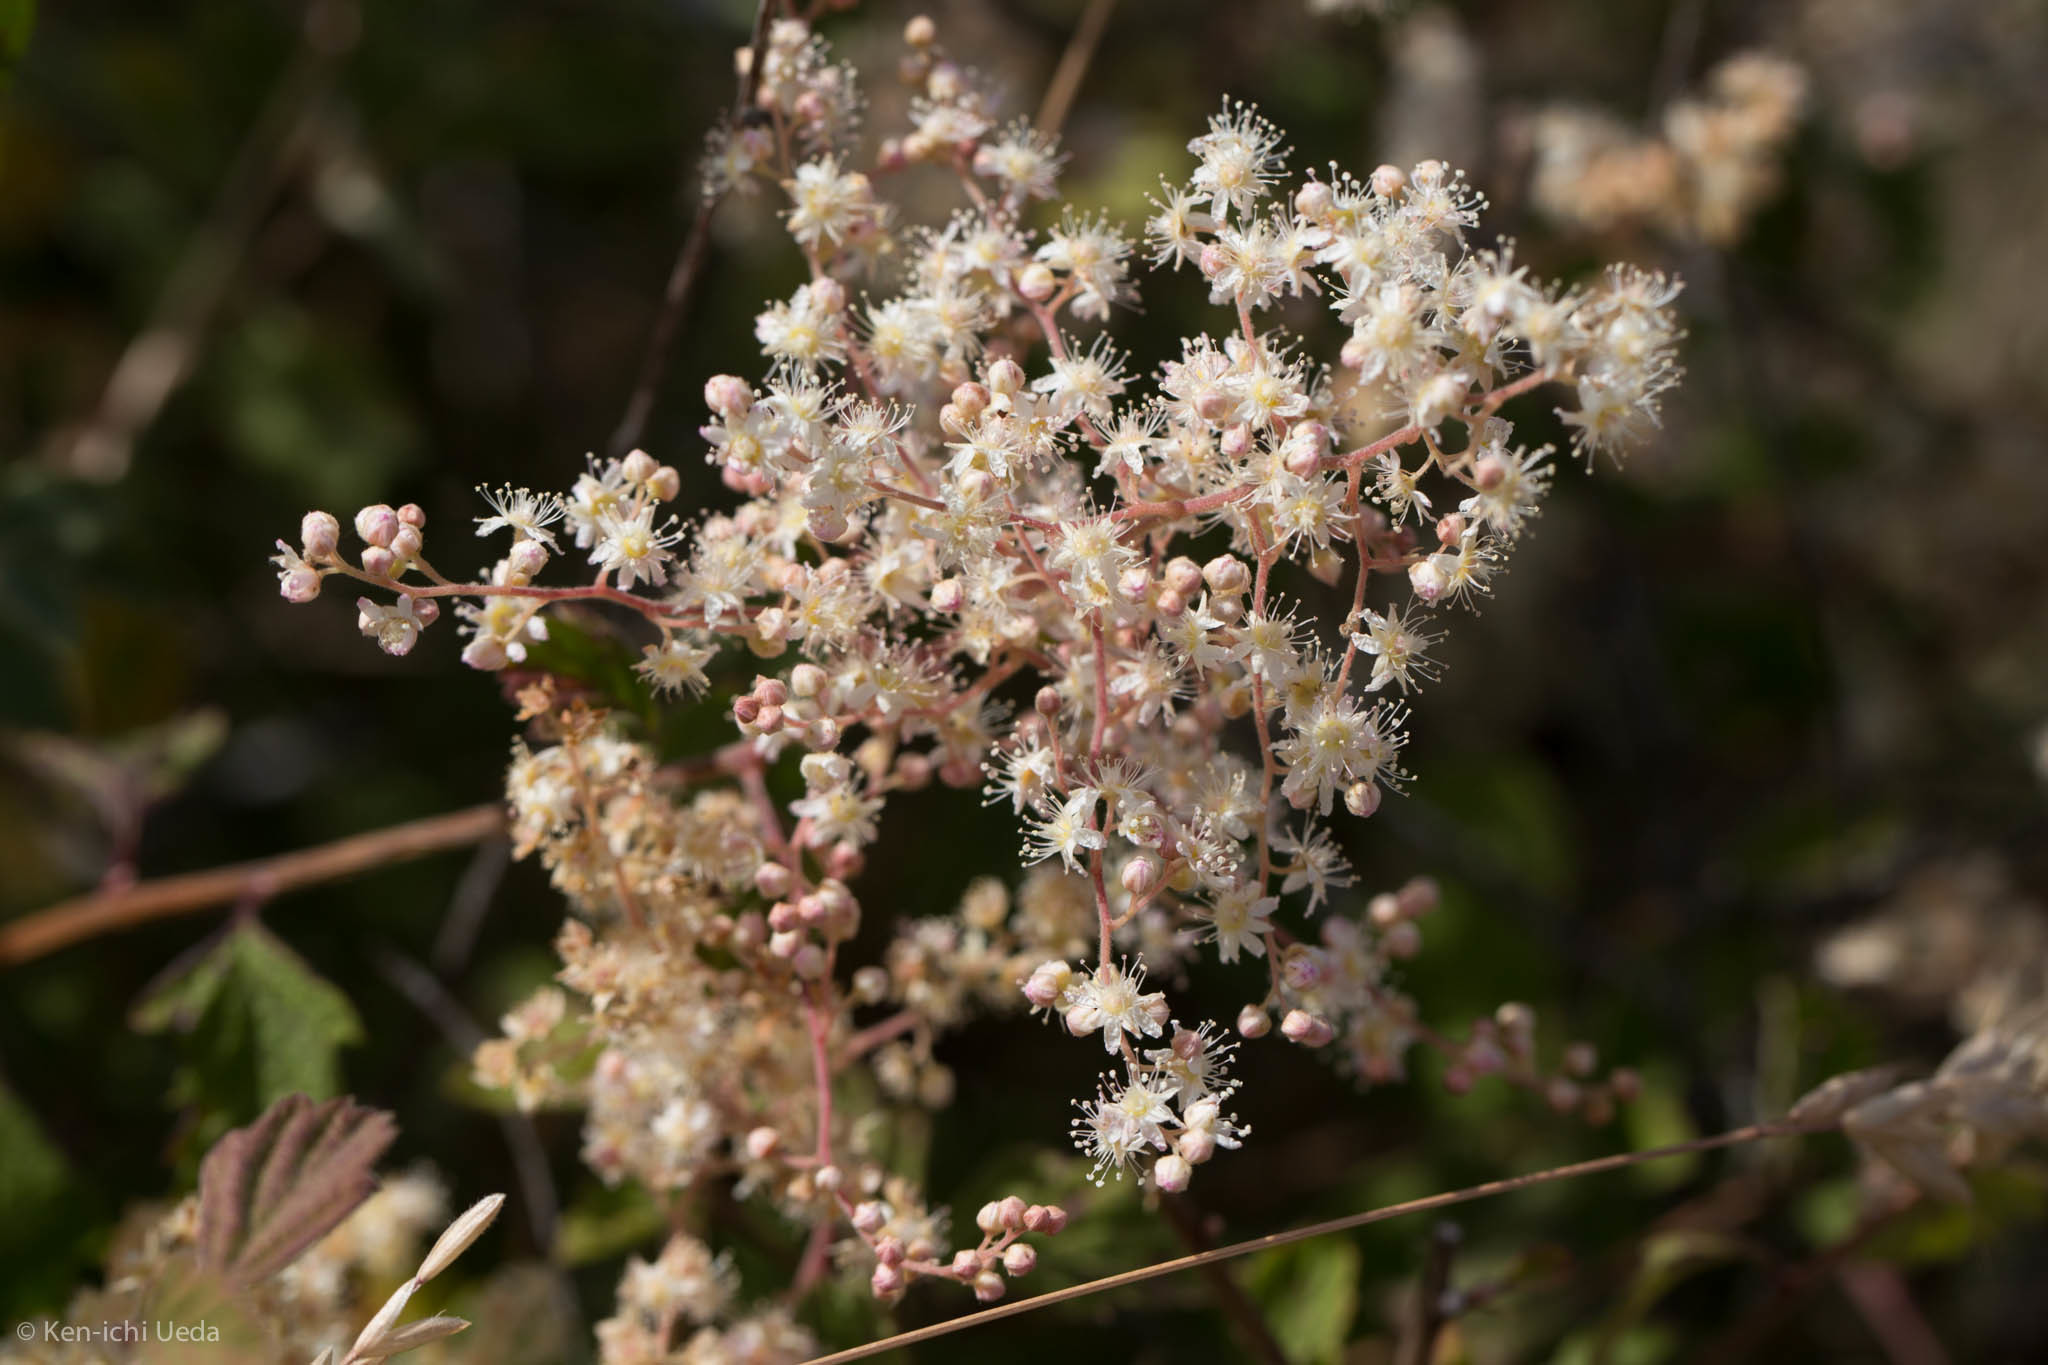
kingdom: Plantae
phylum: Tracheophyta
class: Magnoliopsida
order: Rosales
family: Rosaceae
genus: Holodiscus
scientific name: Holodiscus discolor
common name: Oceanspray
